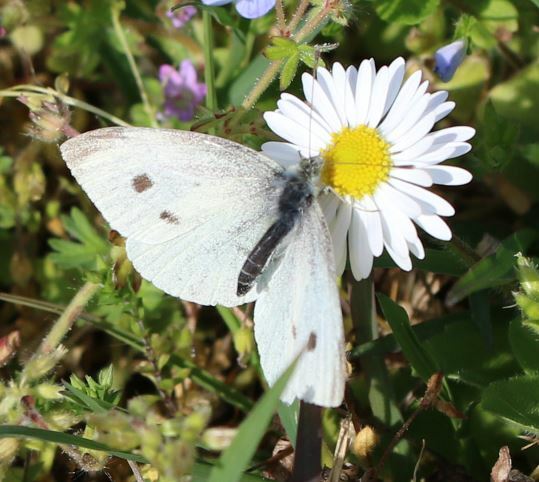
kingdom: Animalia
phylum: Arthropoda
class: Insecta
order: Lepidoptera
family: Pieridae
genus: Pieris
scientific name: Pieris rapae
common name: Small white
